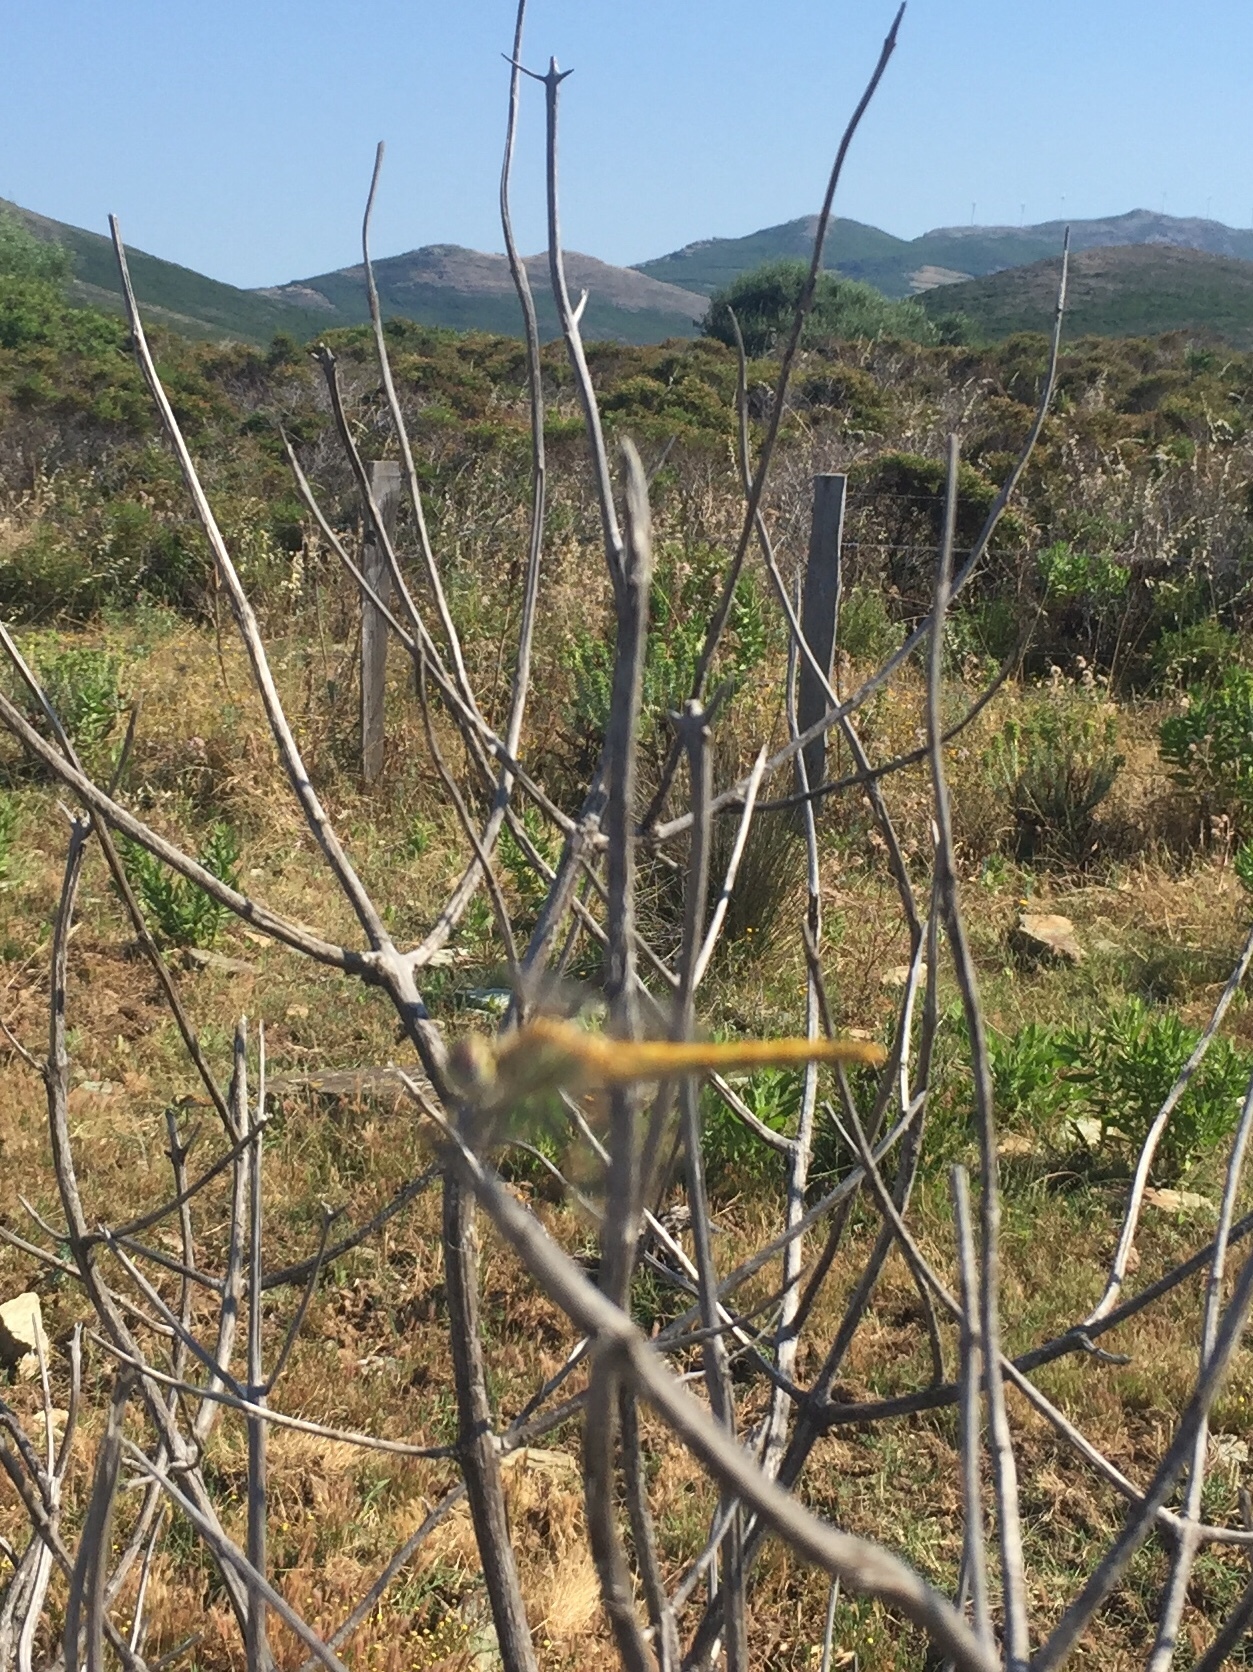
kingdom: Animalia
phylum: Arthropoda
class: Insecta
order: Odonata
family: Libellulidae
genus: Sympetrum
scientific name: Sympetrum fonscolombii
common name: Red-veined darter
